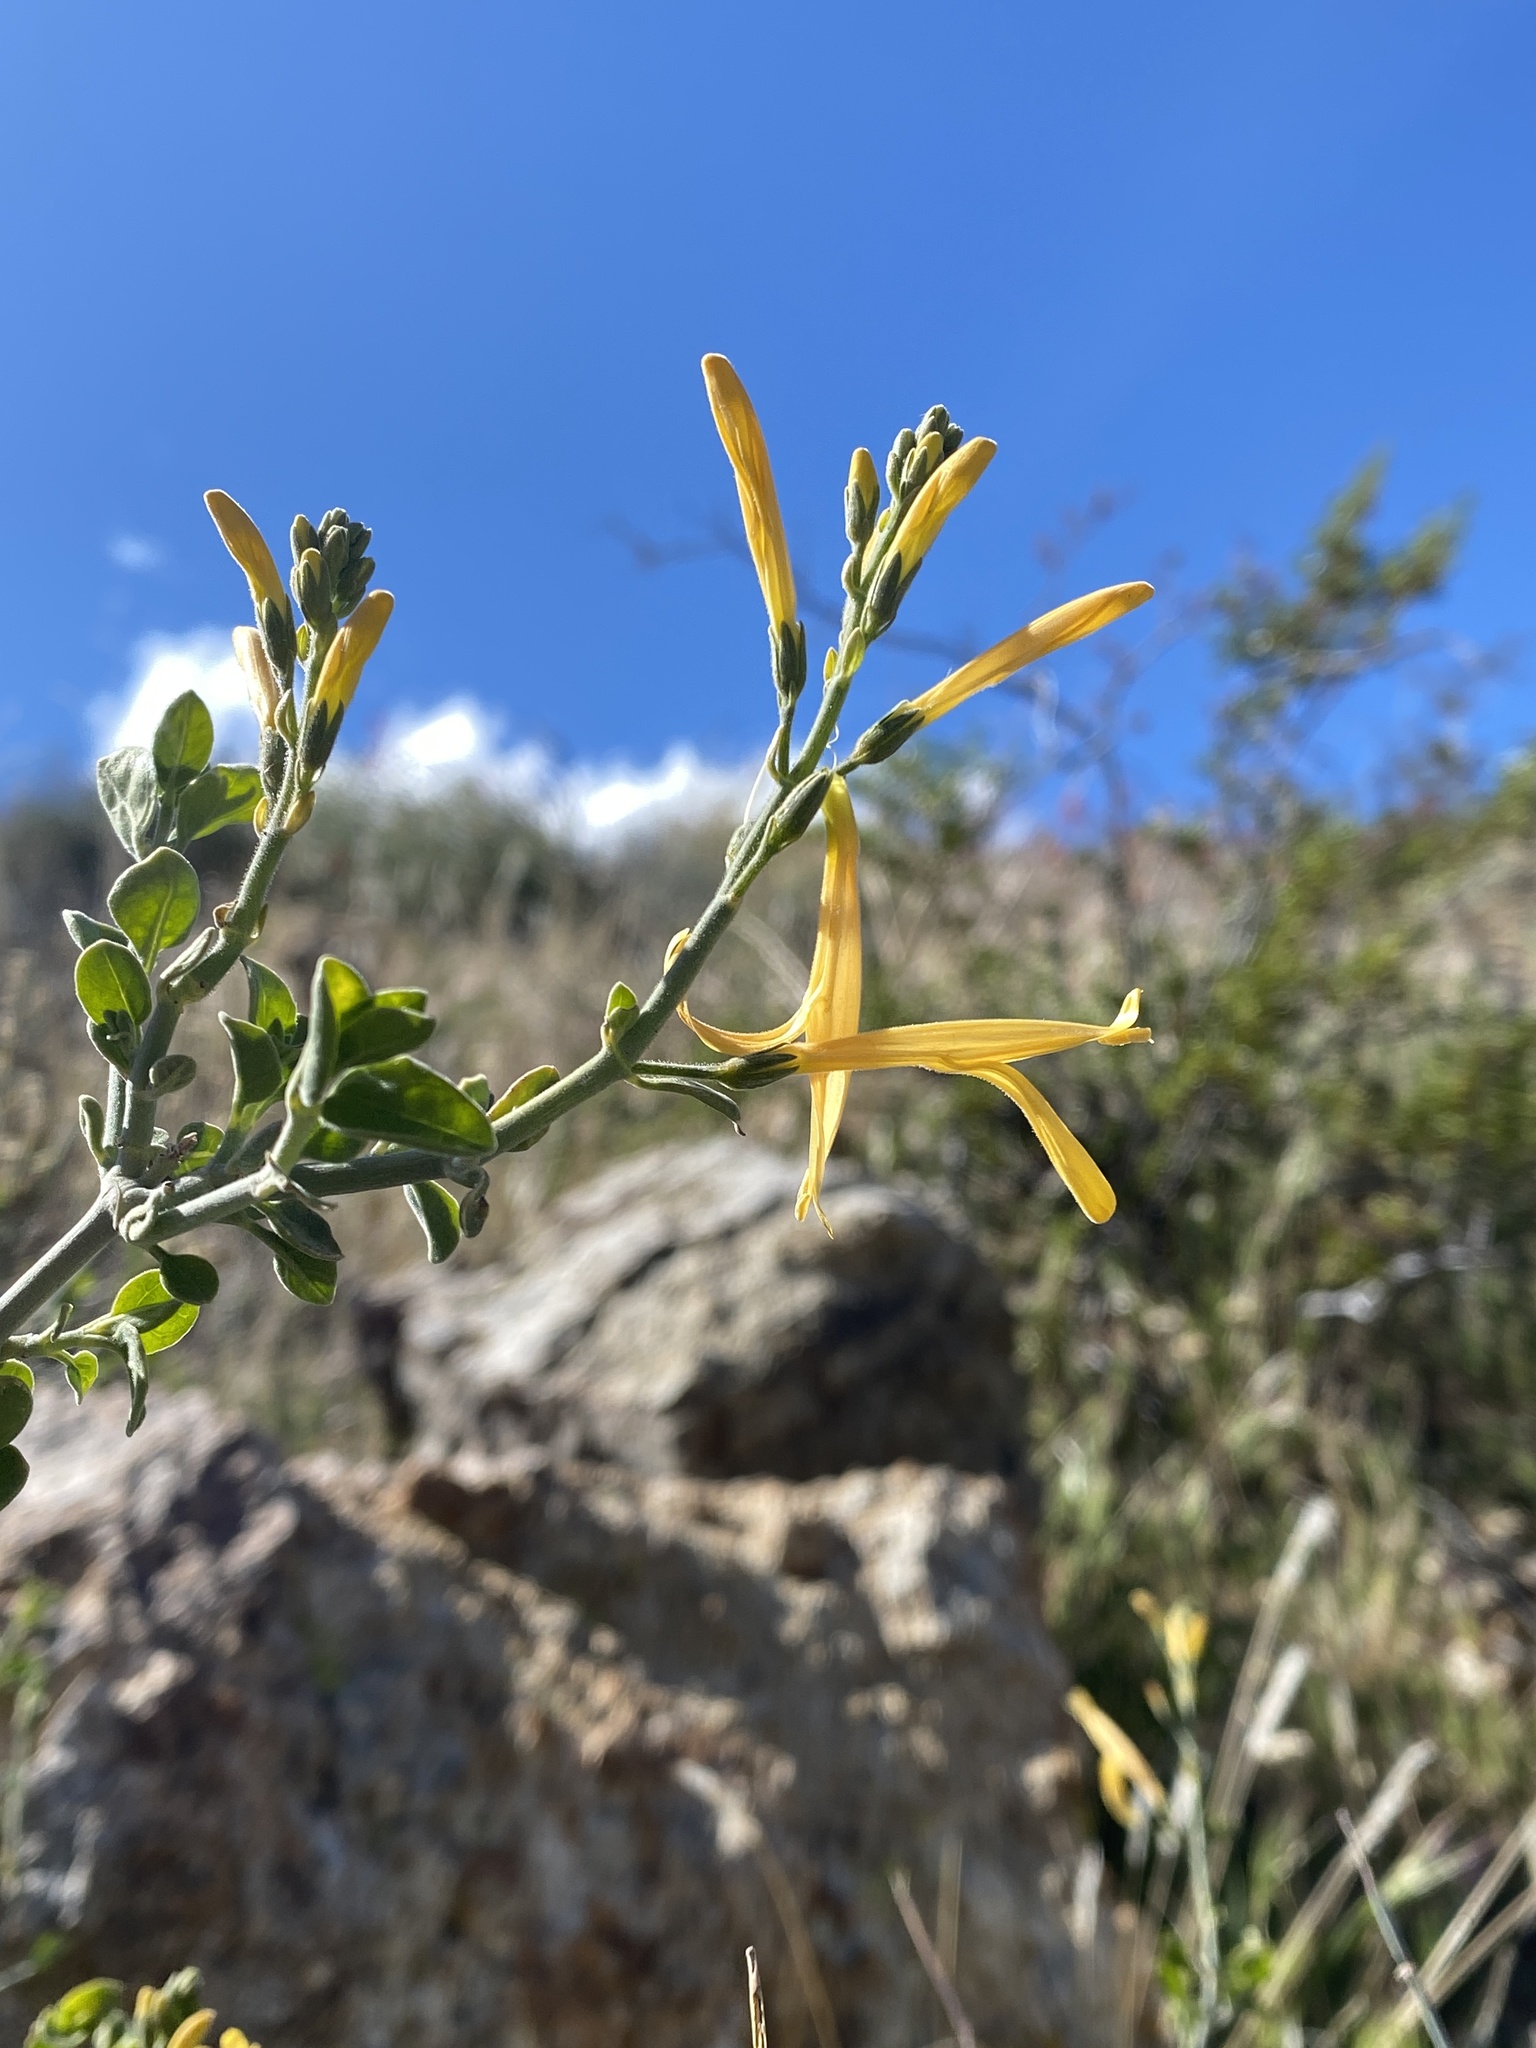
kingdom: Plantae
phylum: Tracheophyta
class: Magnoliopsida
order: Lamiales
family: Acanthaceae
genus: Justicia
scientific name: Justicia californica
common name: Chuparosa-honeysuckle
